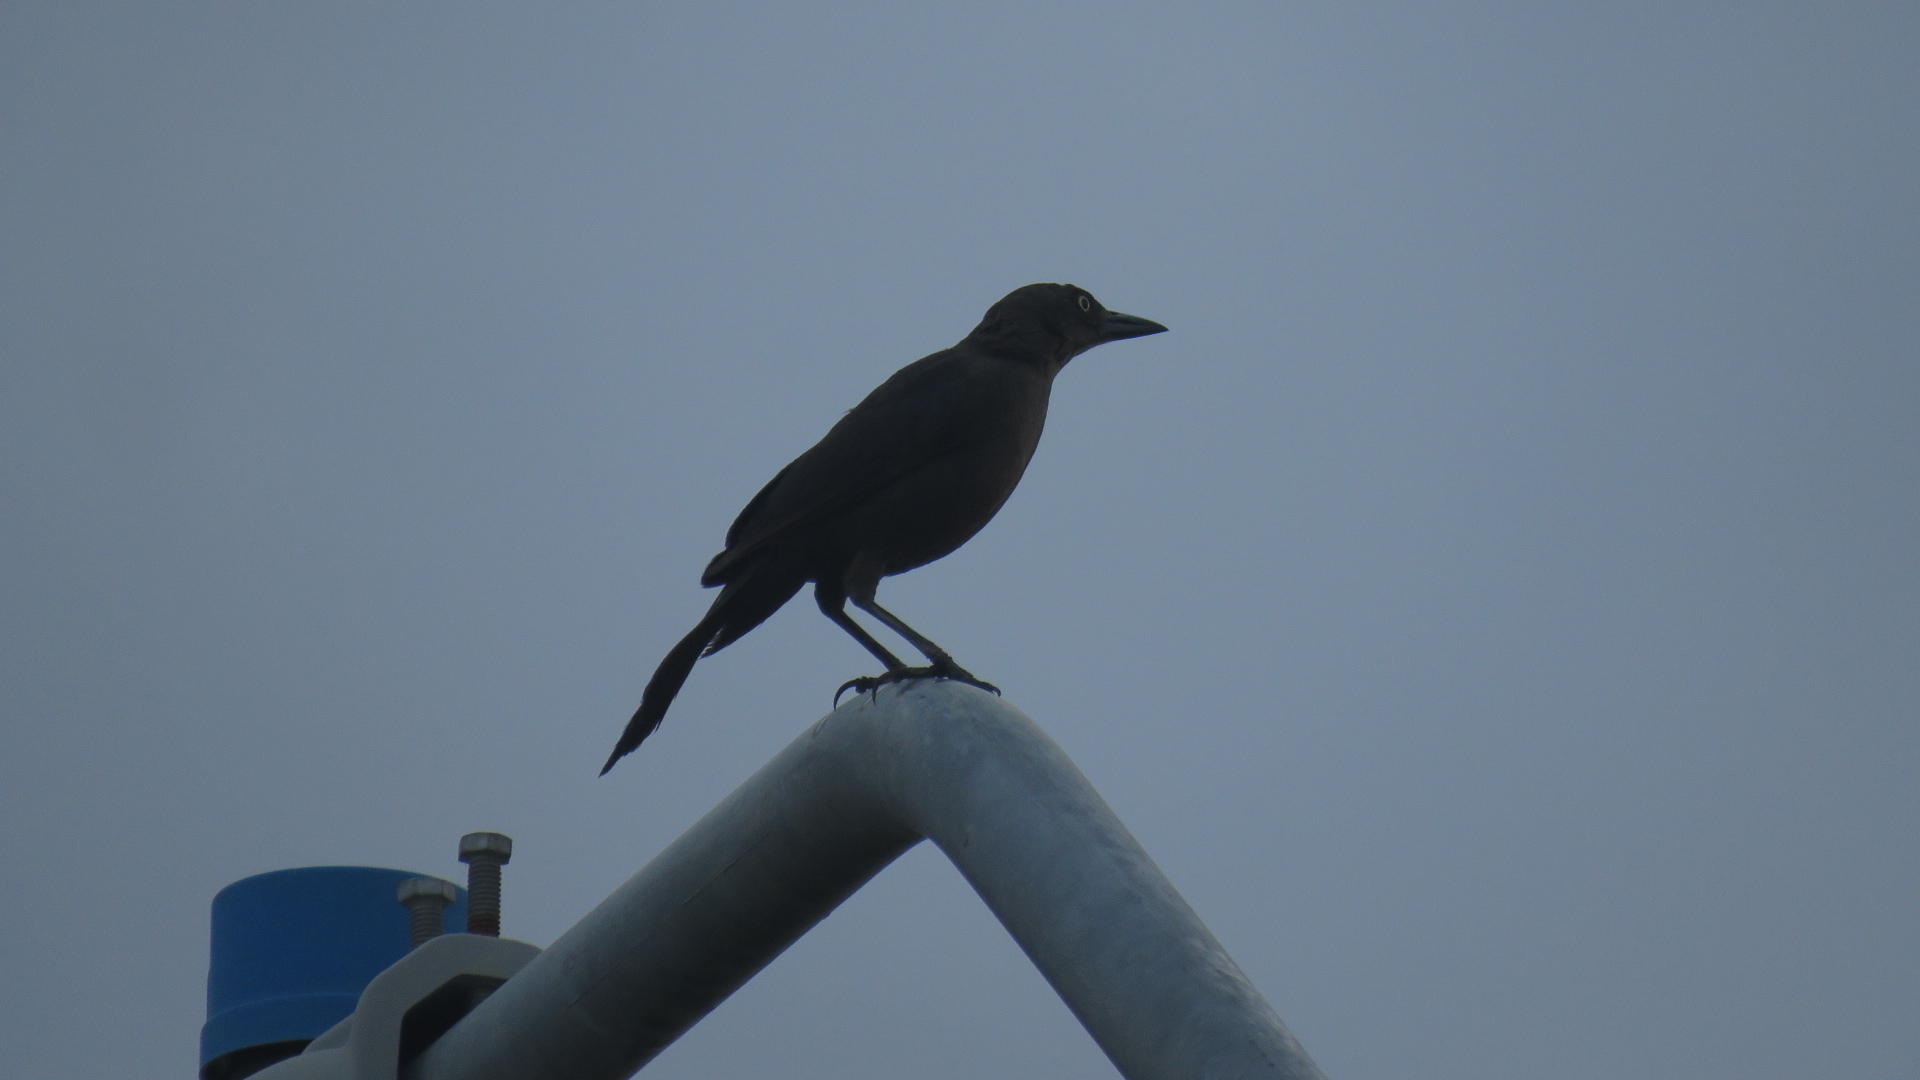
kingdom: Animalia
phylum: Chordata
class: Aves
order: Passeriformes
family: Icteridae
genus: Quiscalus
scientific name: Quiscalus lugubris
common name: Carib grackle
